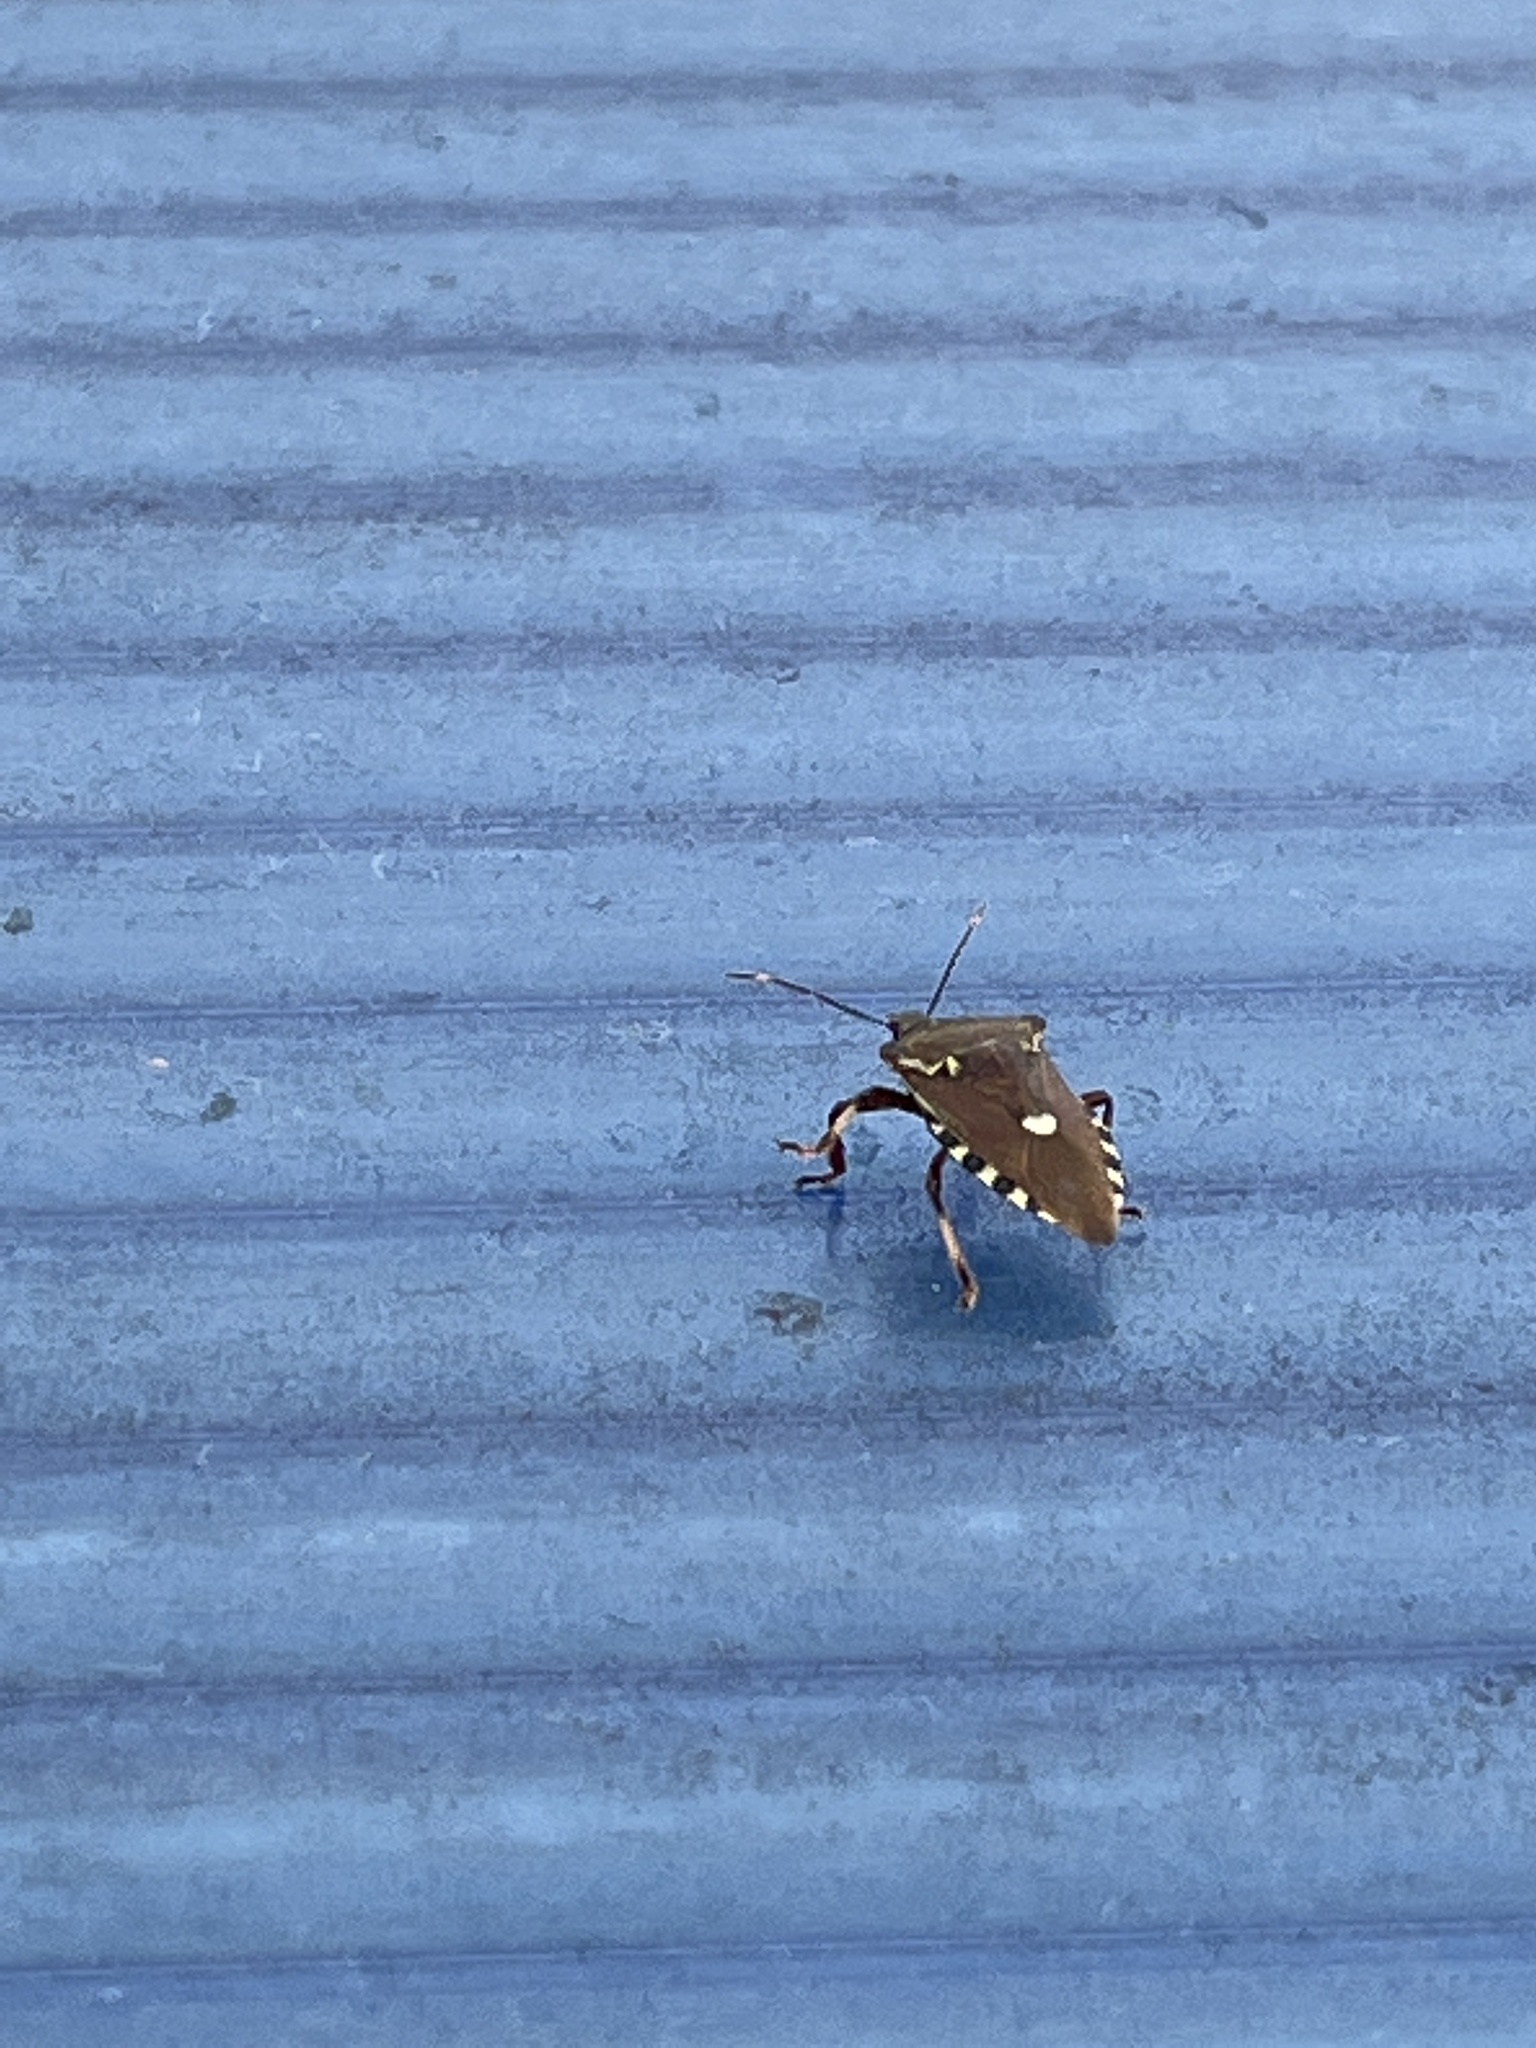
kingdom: Animalia
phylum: Arthropoda
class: Insecta
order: Hemiptera
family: Pentatomidae
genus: Pinthaeus
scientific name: Pinthaeus sanguinipes
